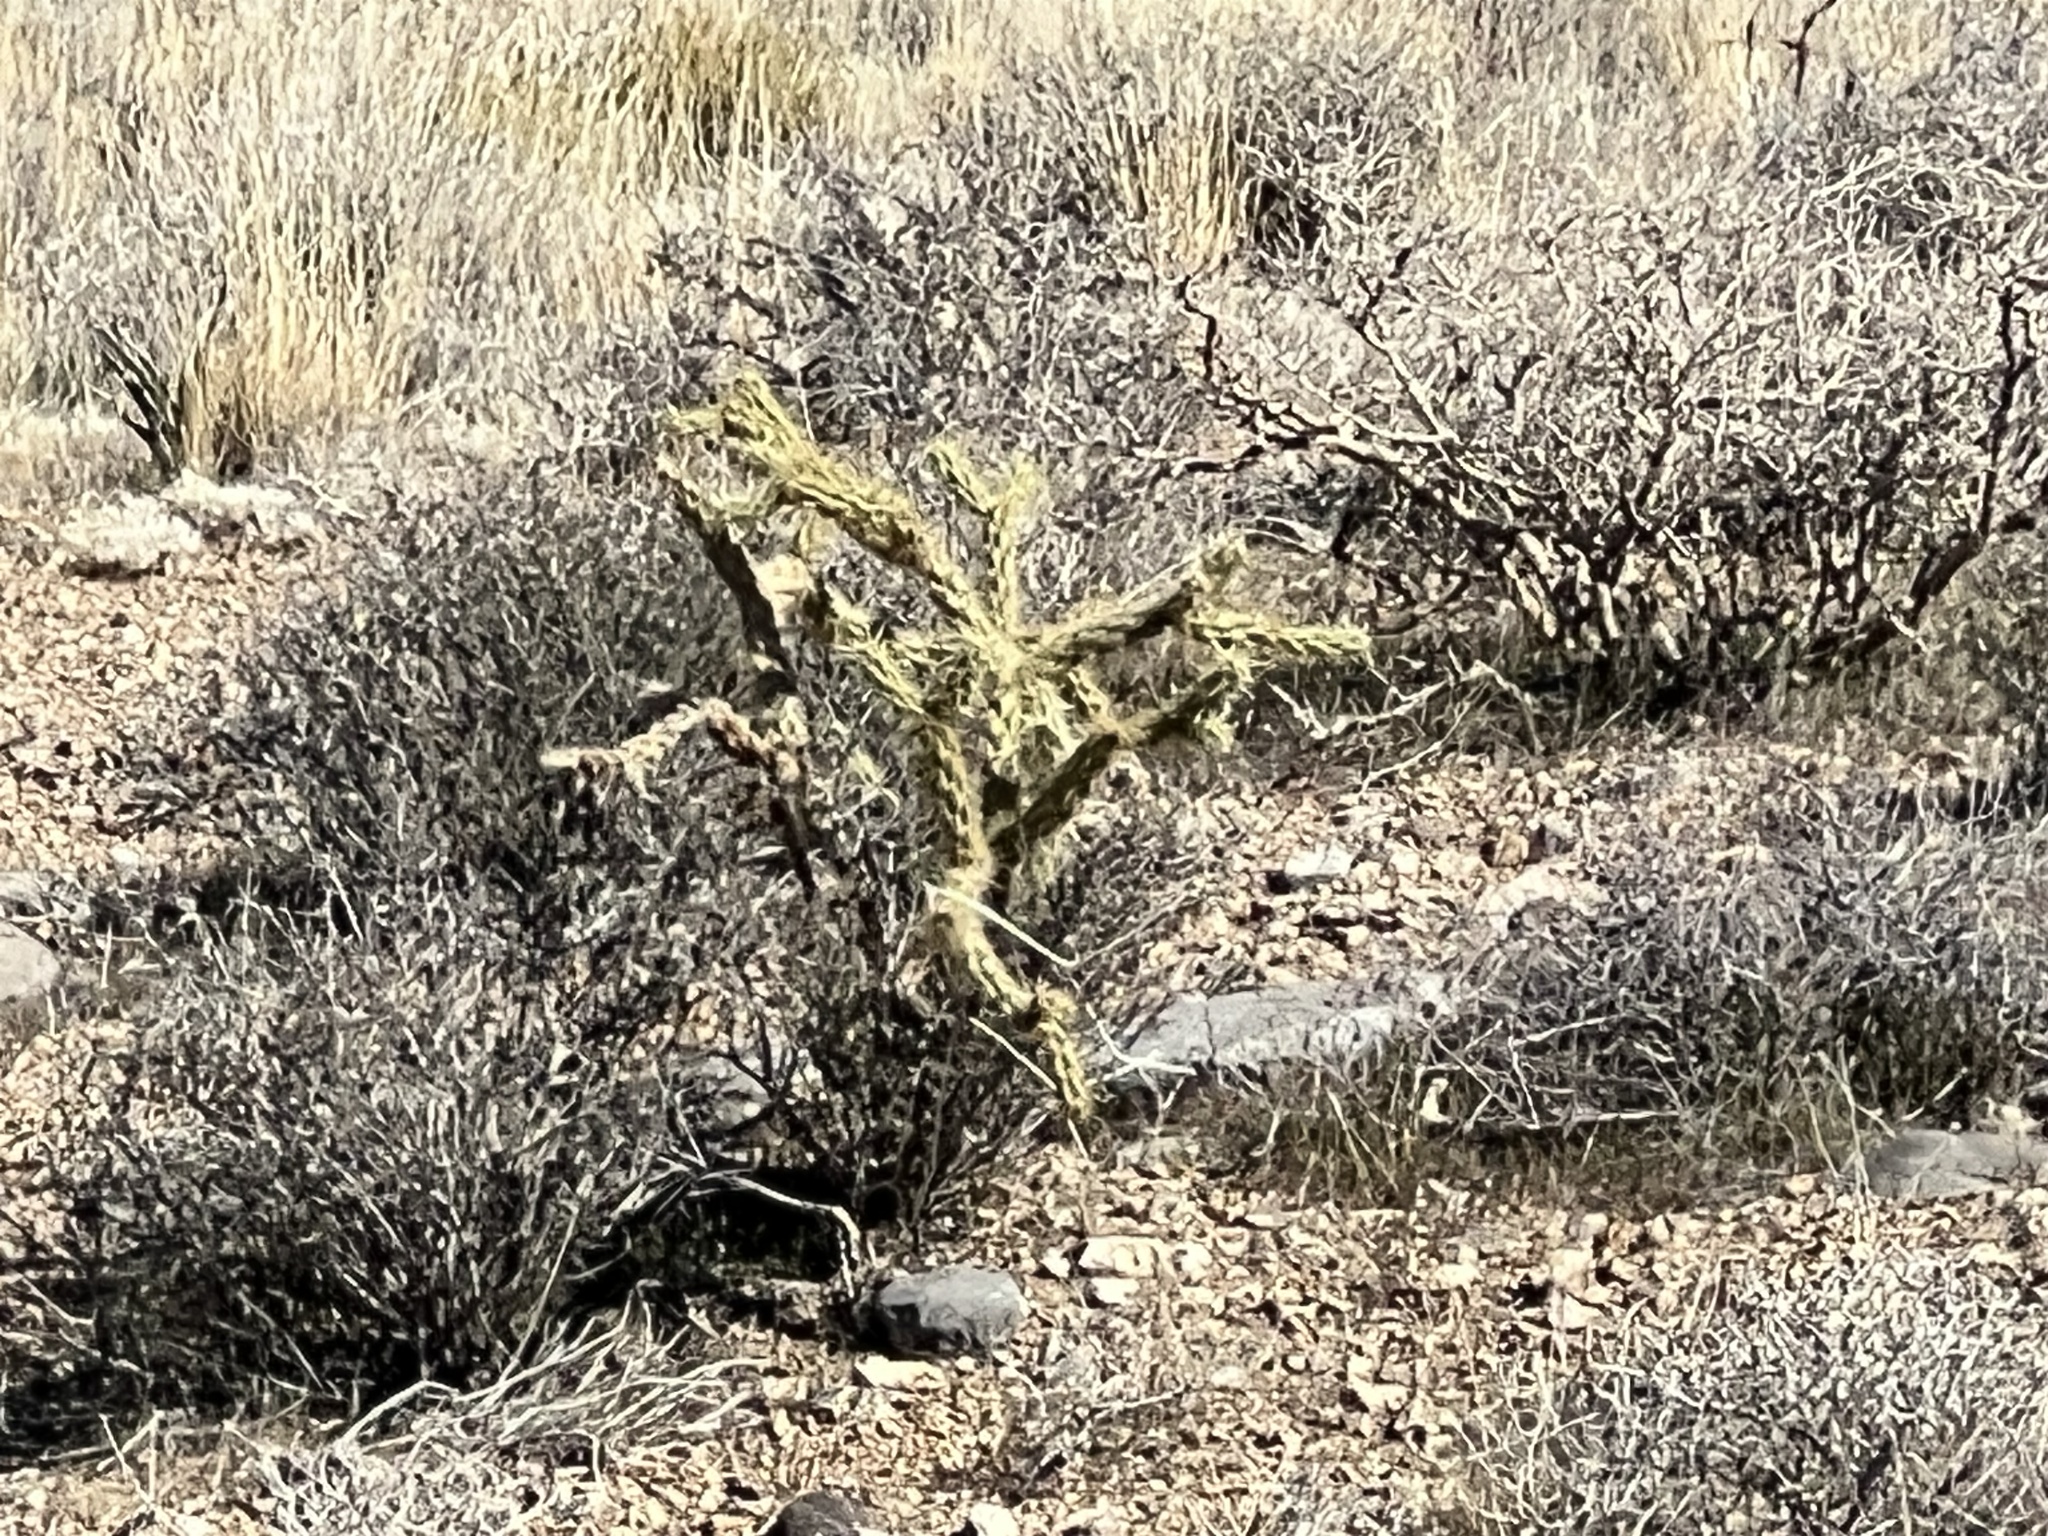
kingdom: Plantae
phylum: Tracheophyta
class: Magnoliopsida
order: Caryophyllales
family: Cactaceae
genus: Cylindropuntia
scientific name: Cylindropuntia acanthocarpa
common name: Buckhorn cholla
